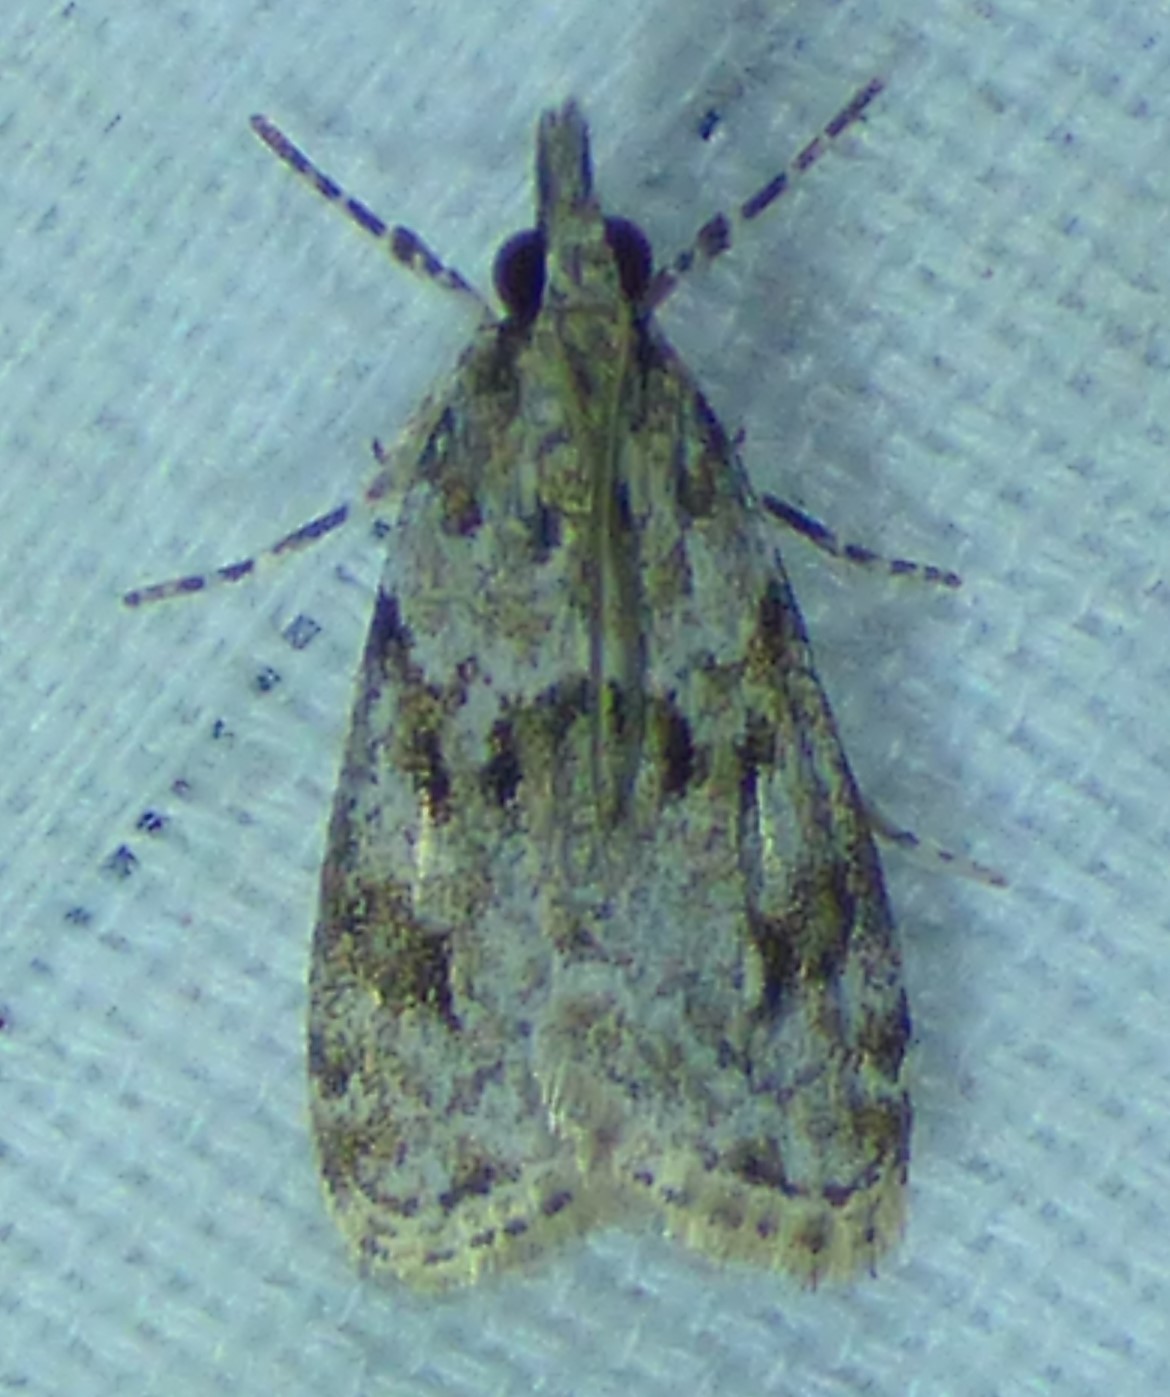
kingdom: Animalia
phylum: Arthropoda
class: Insecta
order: Lepidoptera
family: Crambidae
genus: Eudonia
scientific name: Eudonia heterosalis
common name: Mcdunnough's eudonia
